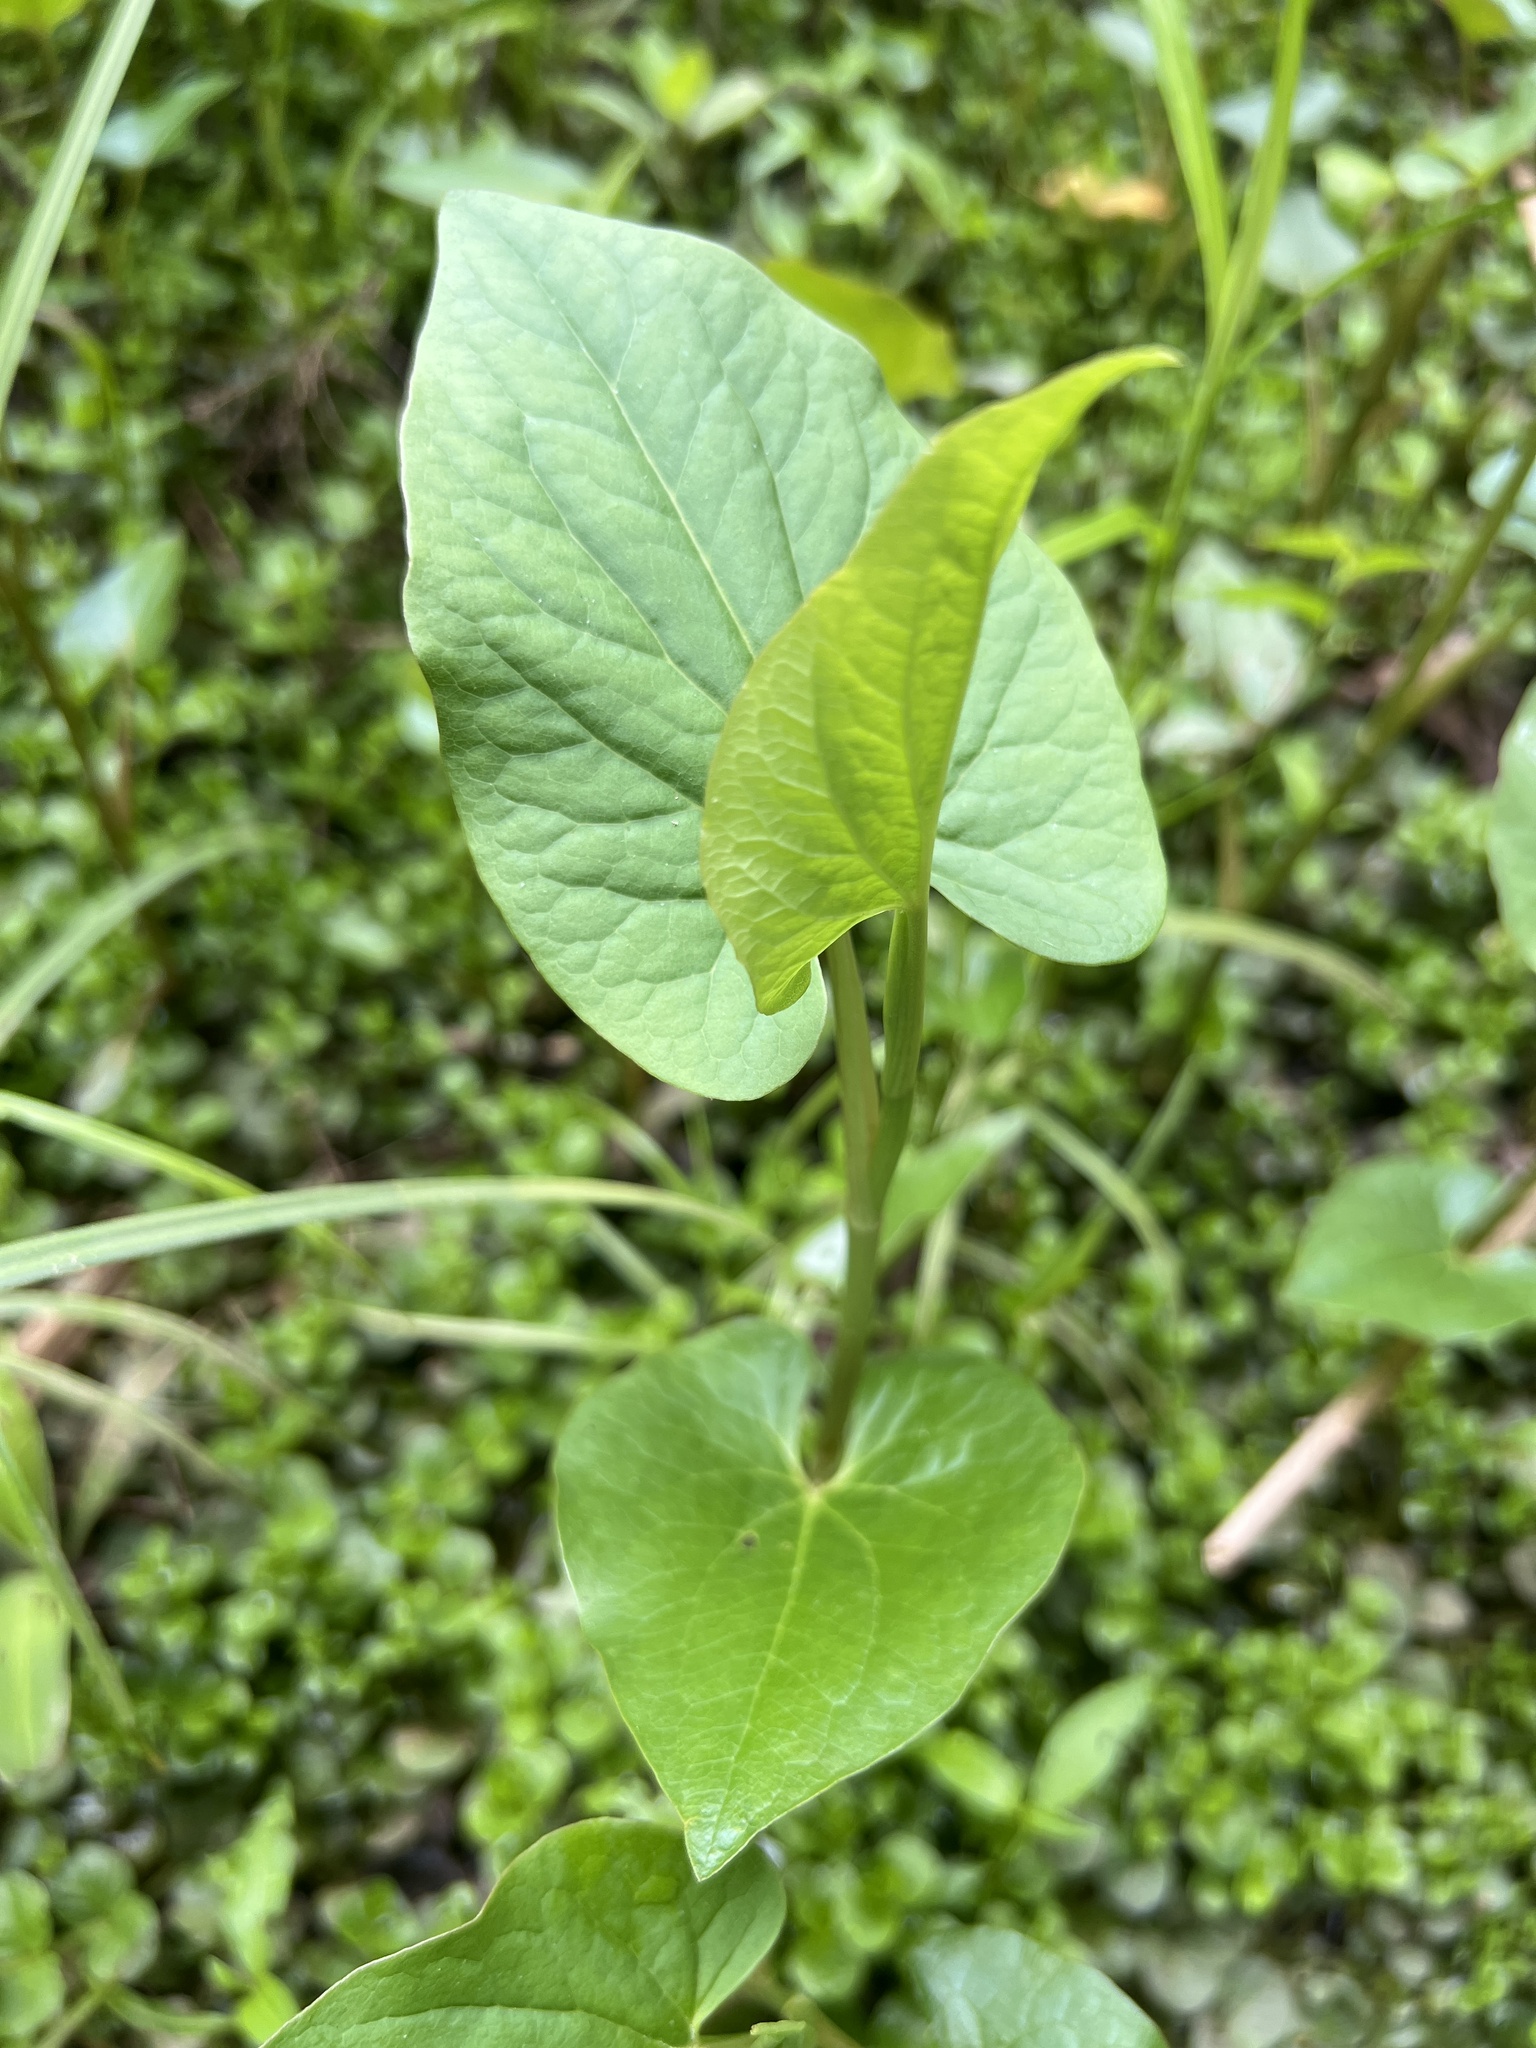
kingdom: Plantae
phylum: Tracheophyta
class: Magnoliopsida
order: Piperales
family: Saururaceae
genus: Saururus
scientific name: Saururus cernuus
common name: Lizard's-tail
